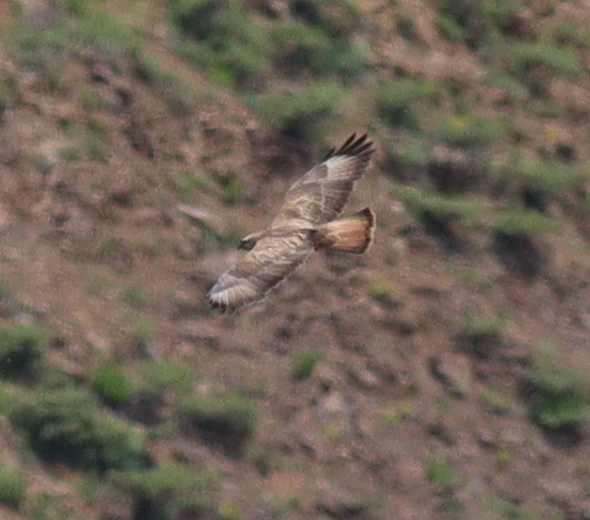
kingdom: Animalia
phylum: Chordata
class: Aves
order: Accipitriformes
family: Accipitridae
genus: Buteo
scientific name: Buteo buteo
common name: Common buzzard
